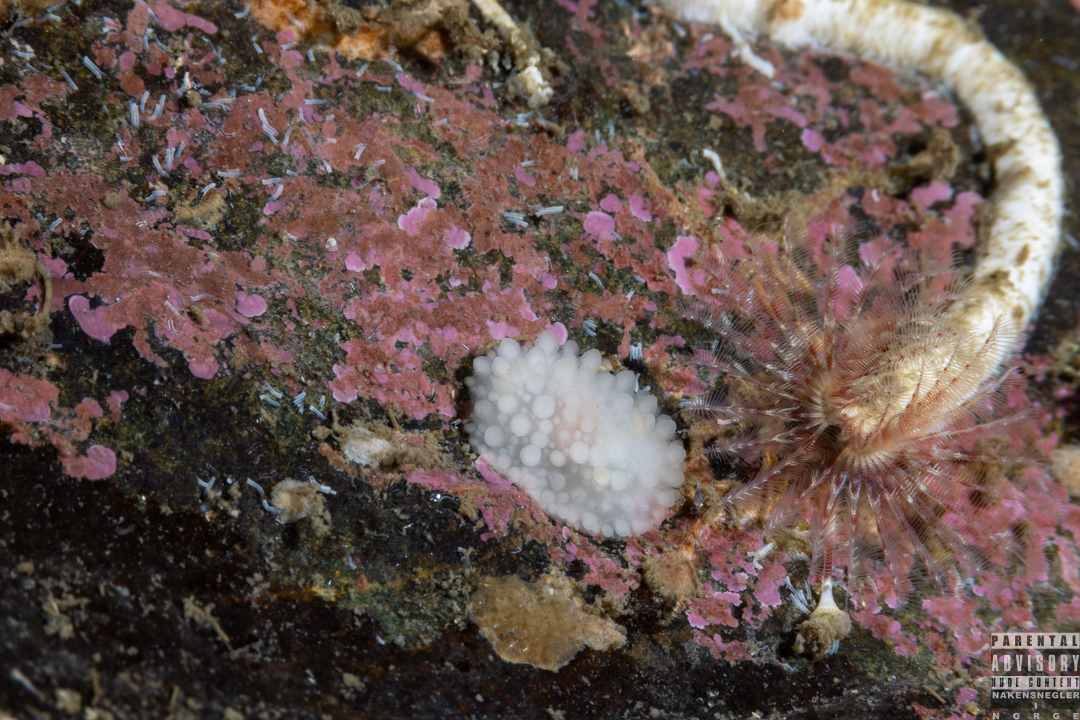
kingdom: Animalia
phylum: Mollusca
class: Gastropoda
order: Nudibranchia
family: Onchidorididae
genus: Adalaria
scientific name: Adalaria loveni
